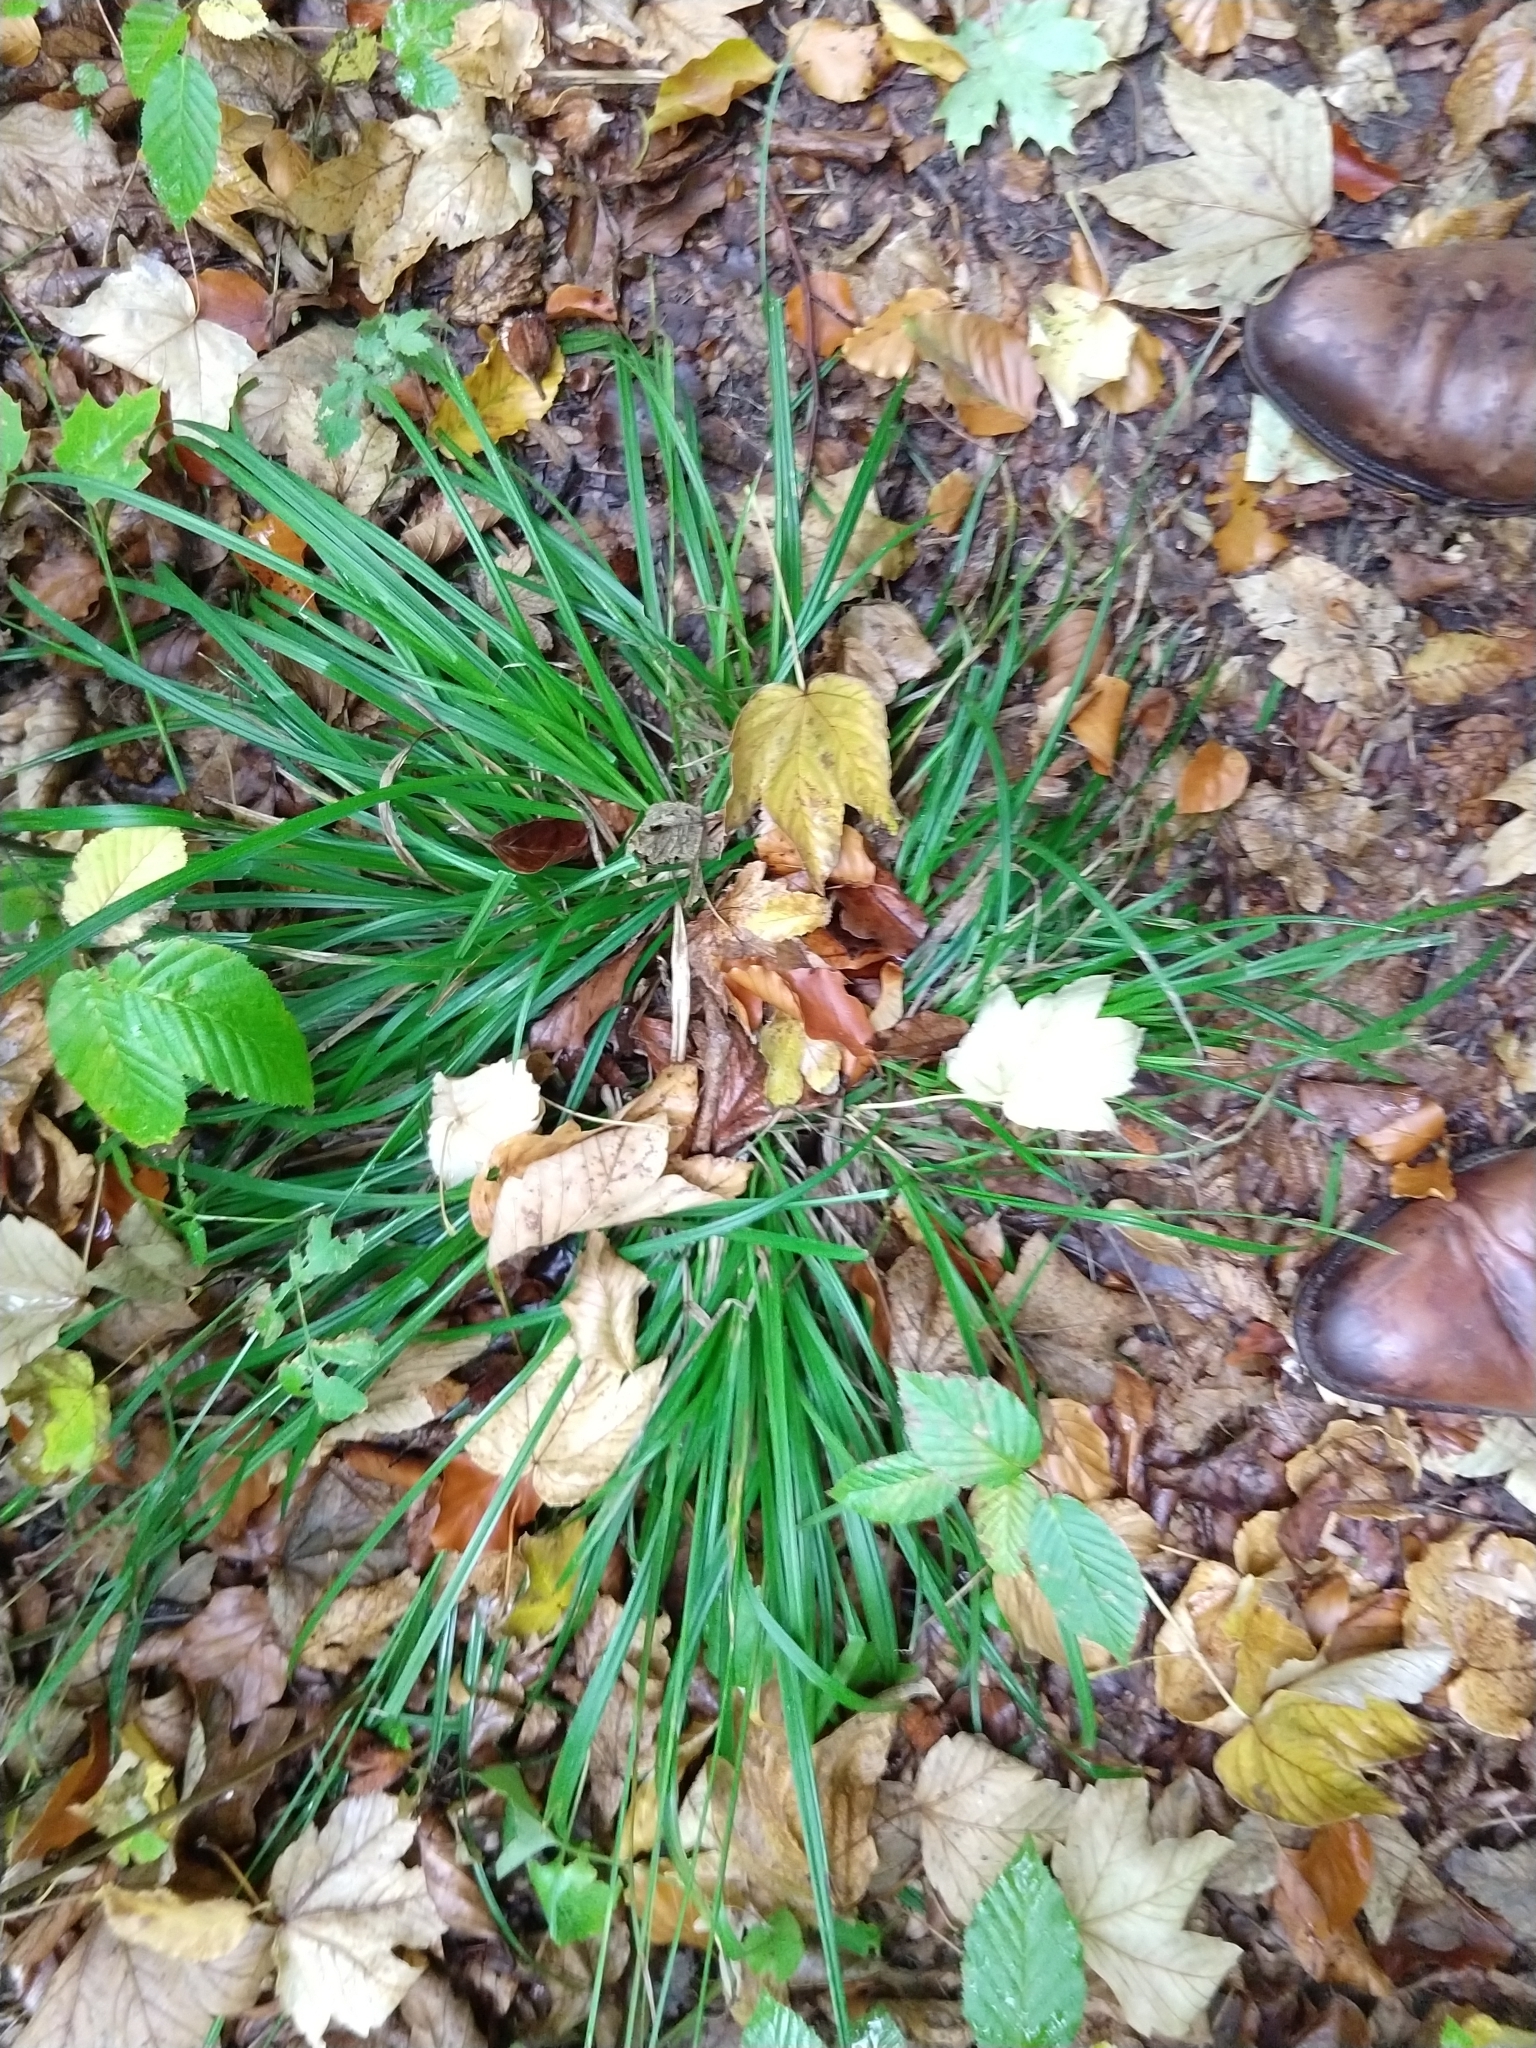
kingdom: Plantae
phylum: Tracheophyta
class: Liliopsida
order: Poales
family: Cyperaceae
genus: Carex
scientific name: Carex sylvatica
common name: Wood-sedge
